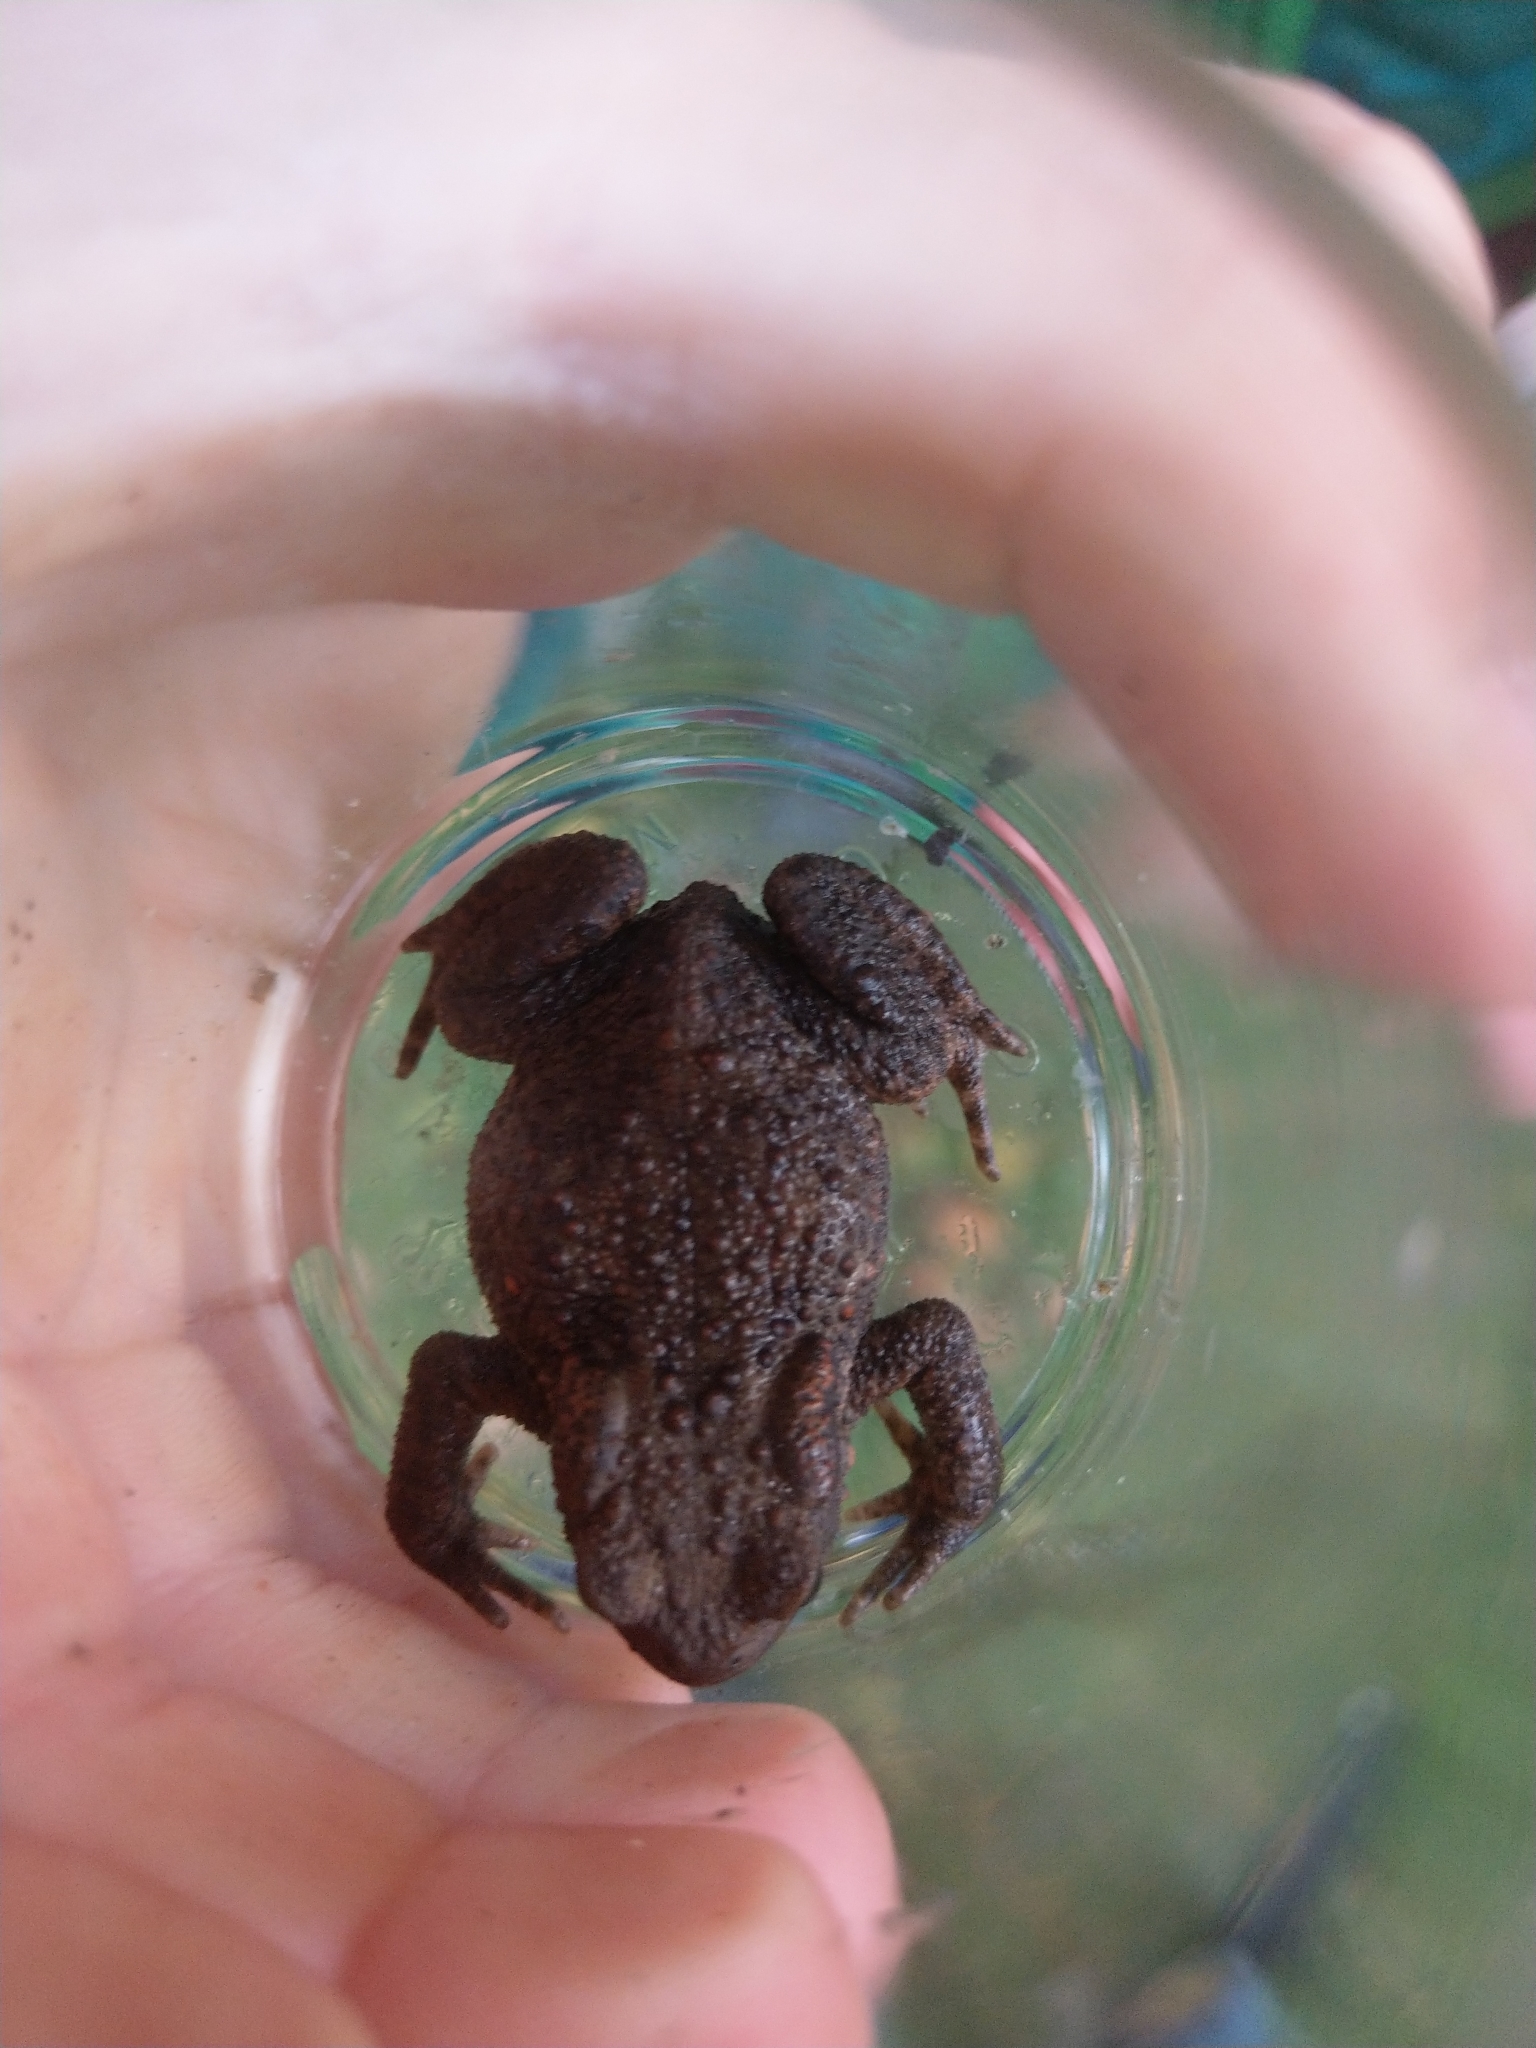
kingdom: Animalia
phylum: Chordata
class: Amphibia
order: Anura
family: Bufonidae
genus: Bufo
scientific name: Bufo bufo
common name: Common toad
